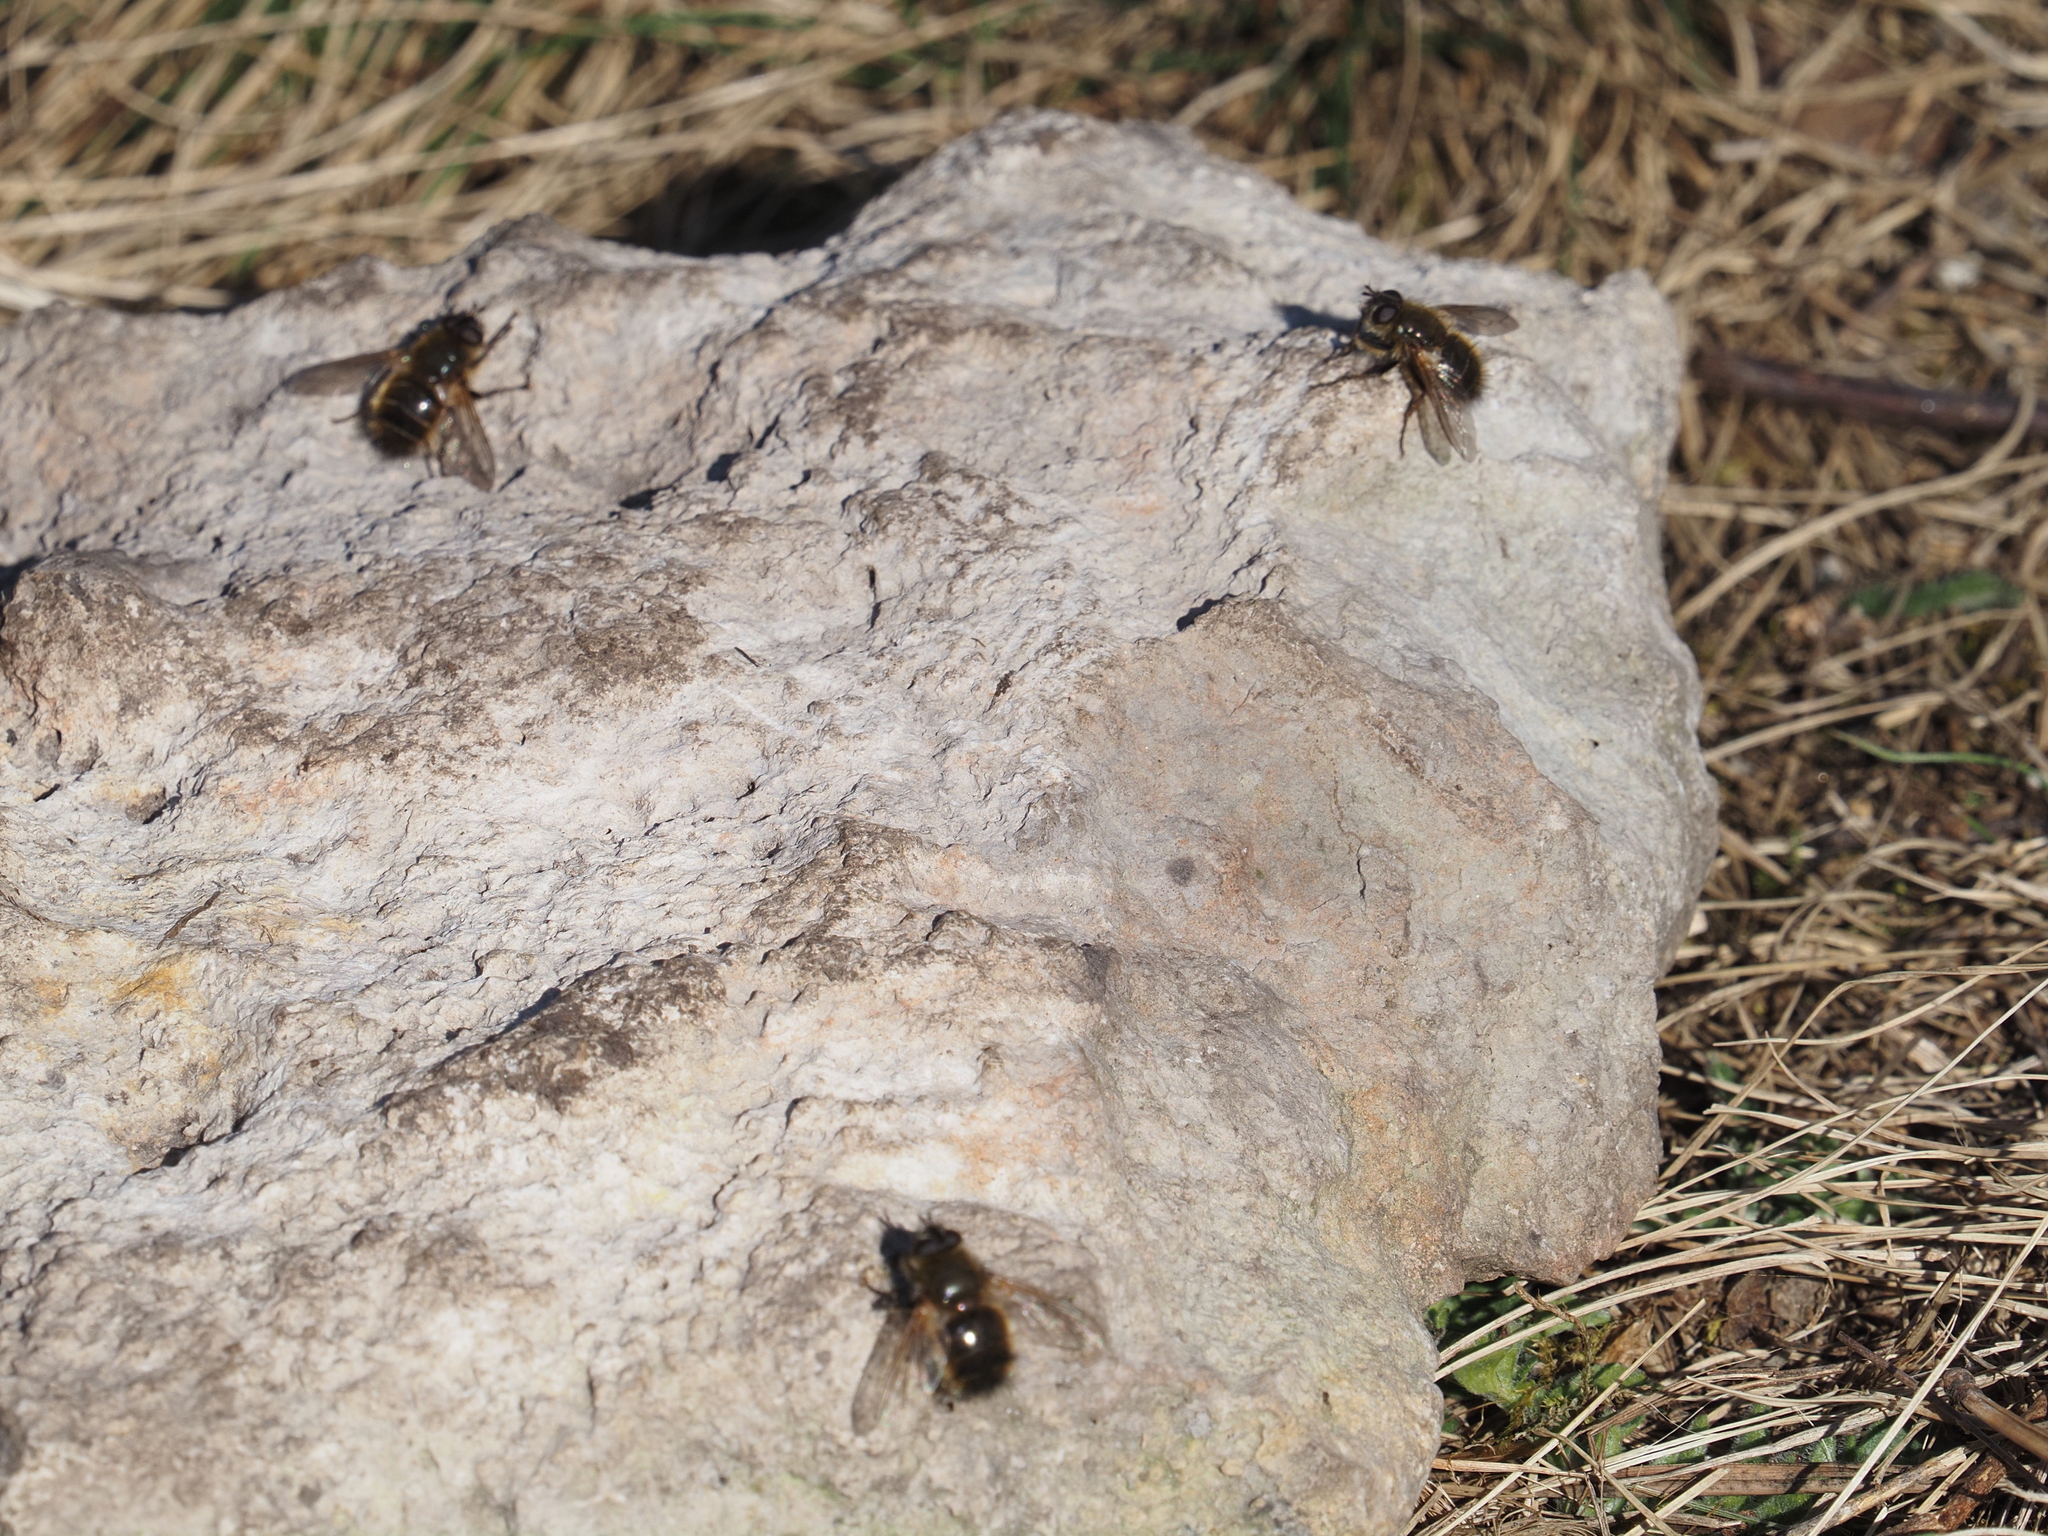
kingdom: Animalia
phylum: Arthropoda
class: Insecta
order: Diptera
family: Tachinidae
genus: Tachina
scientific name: Tachina ursina
